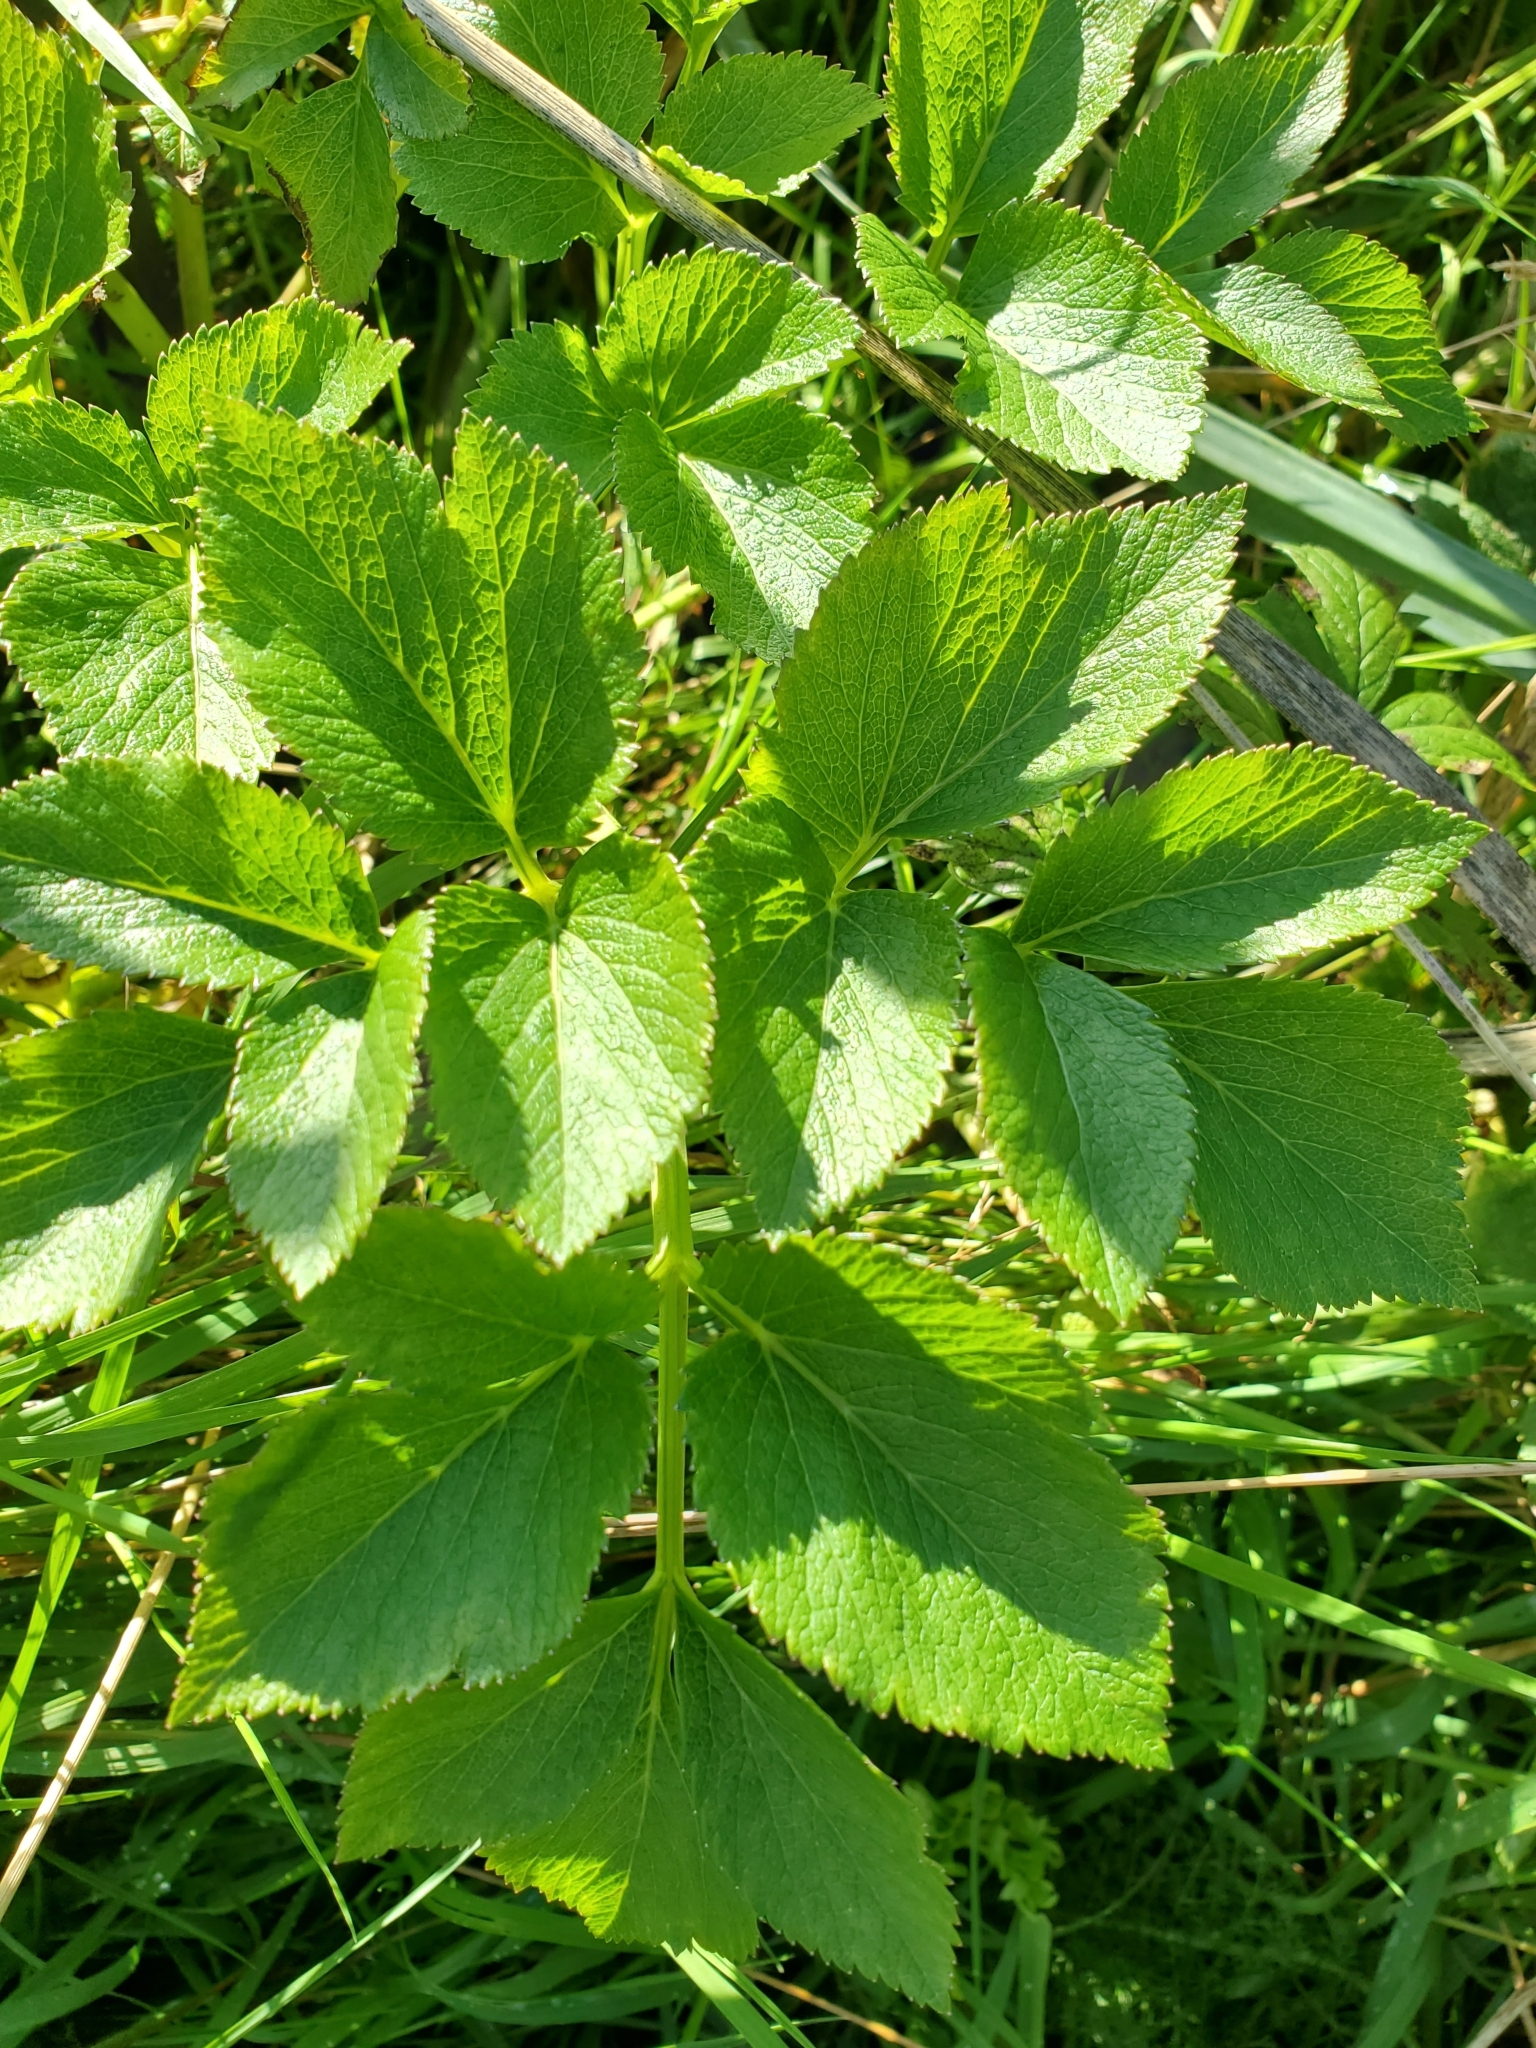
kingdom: Plantae
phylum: Tracheophyta
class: Magnoliopsida
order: Apiales
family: Apiaceae
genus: Angelica
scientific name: Angelica lucida
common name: Seabeach angelica
